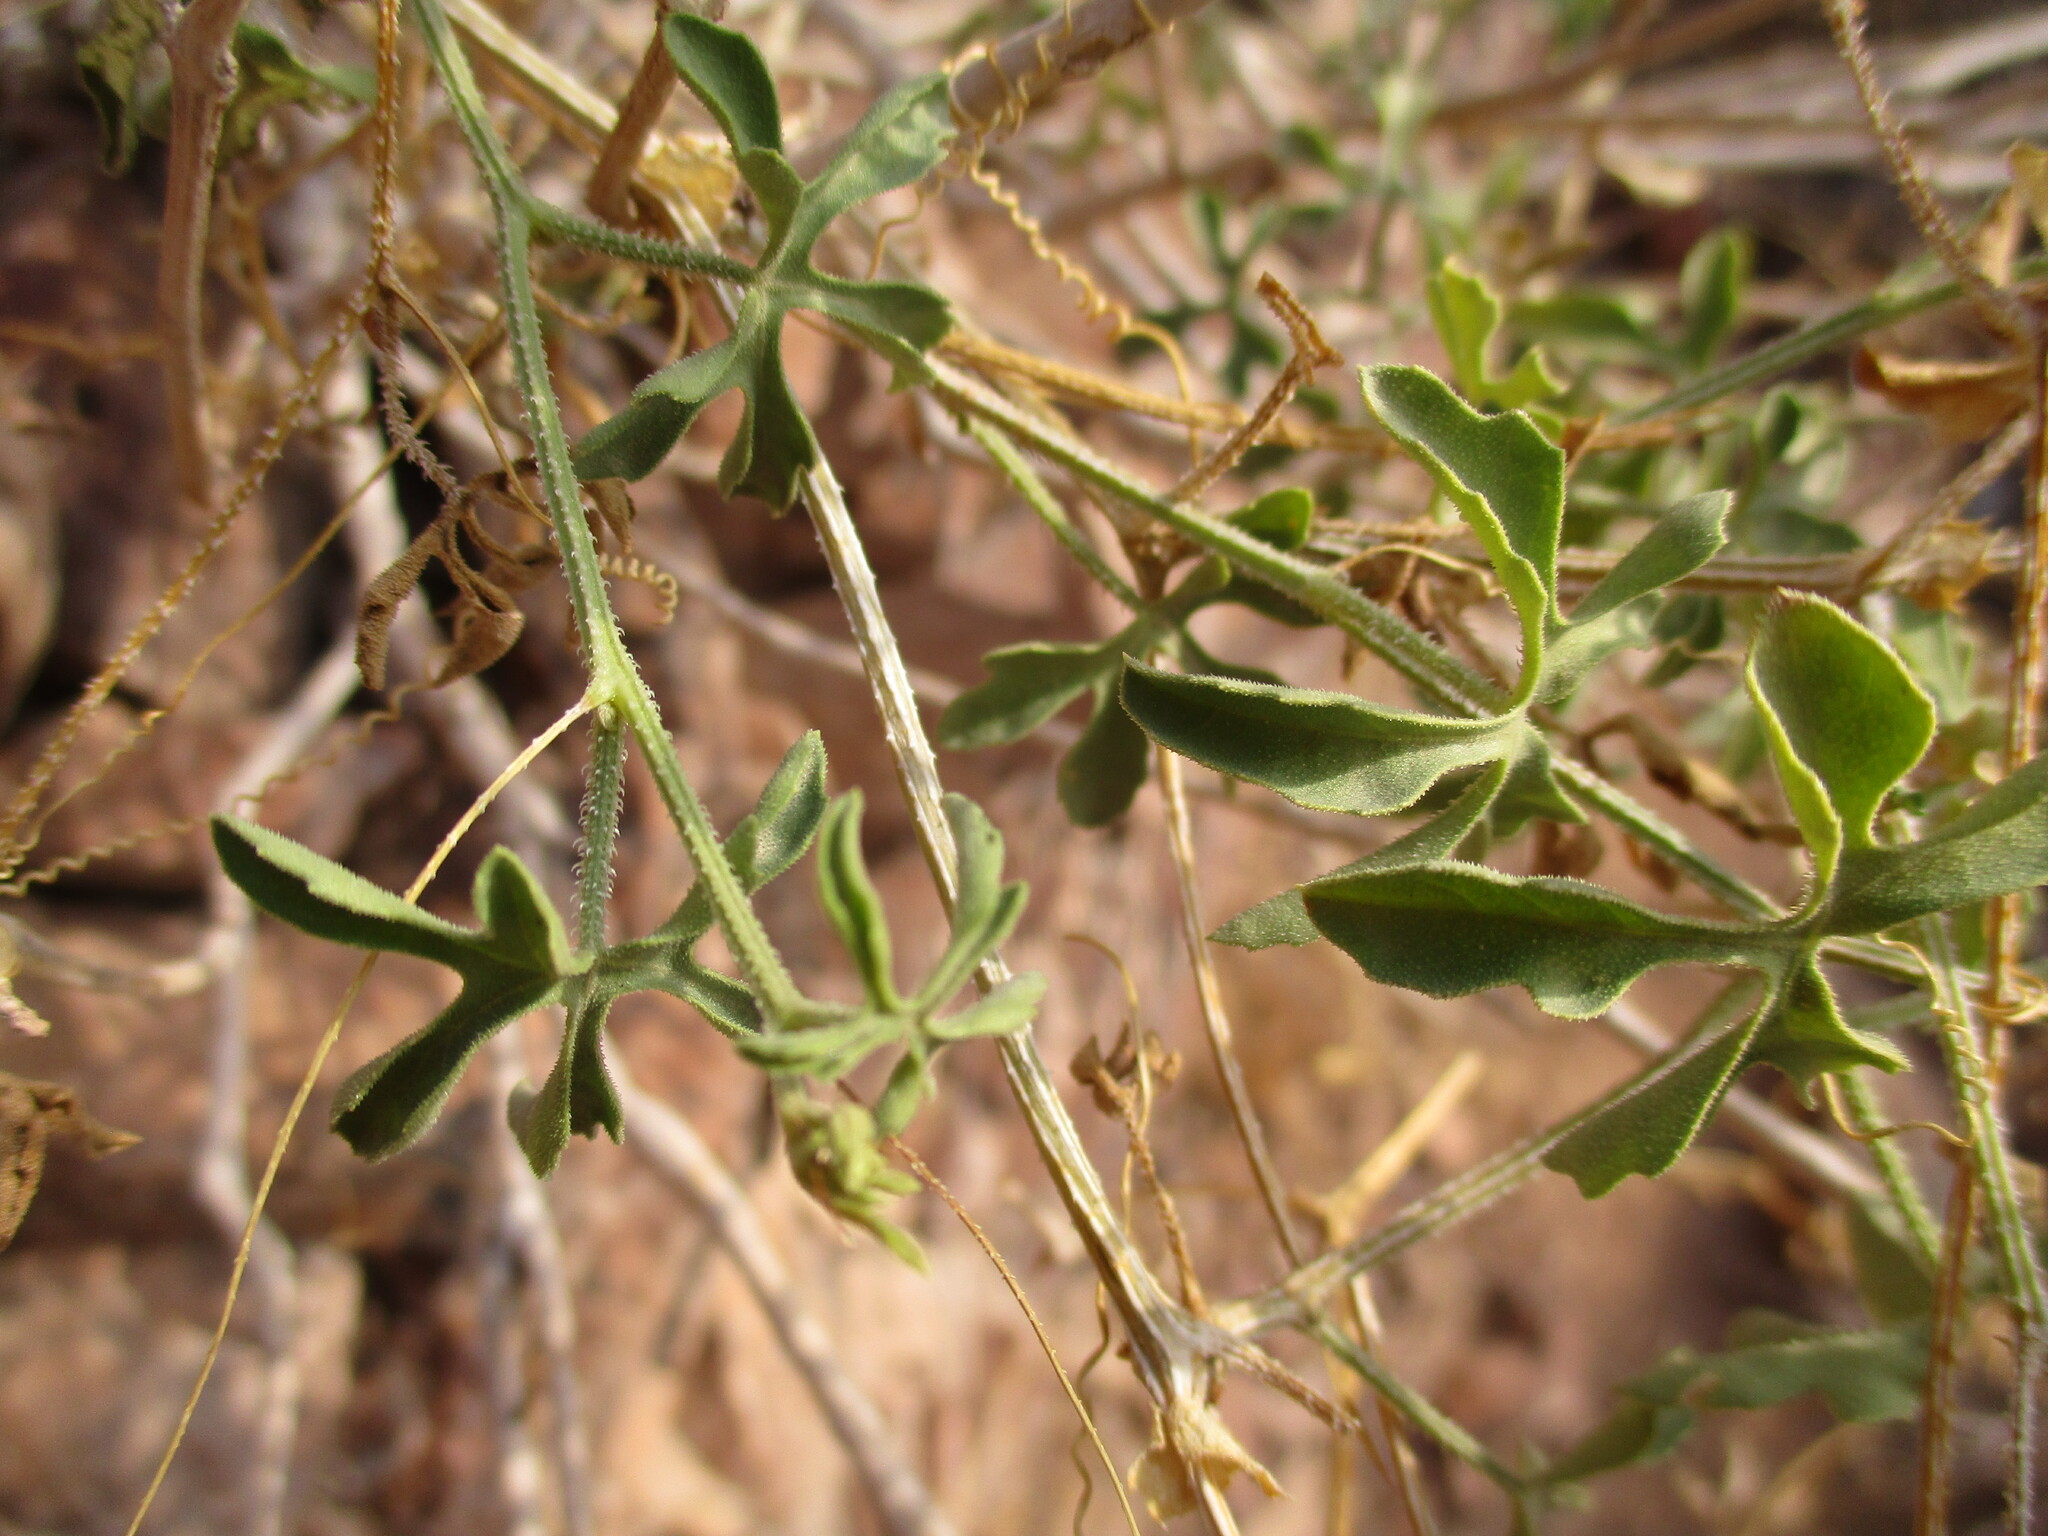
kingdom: Plantae
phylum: Tracheophyta
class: Magnoliopsida
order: Cucurbitales
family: Cucurbitaceae
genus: Dactyliandra
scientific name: Dactyliandra welwitschii
